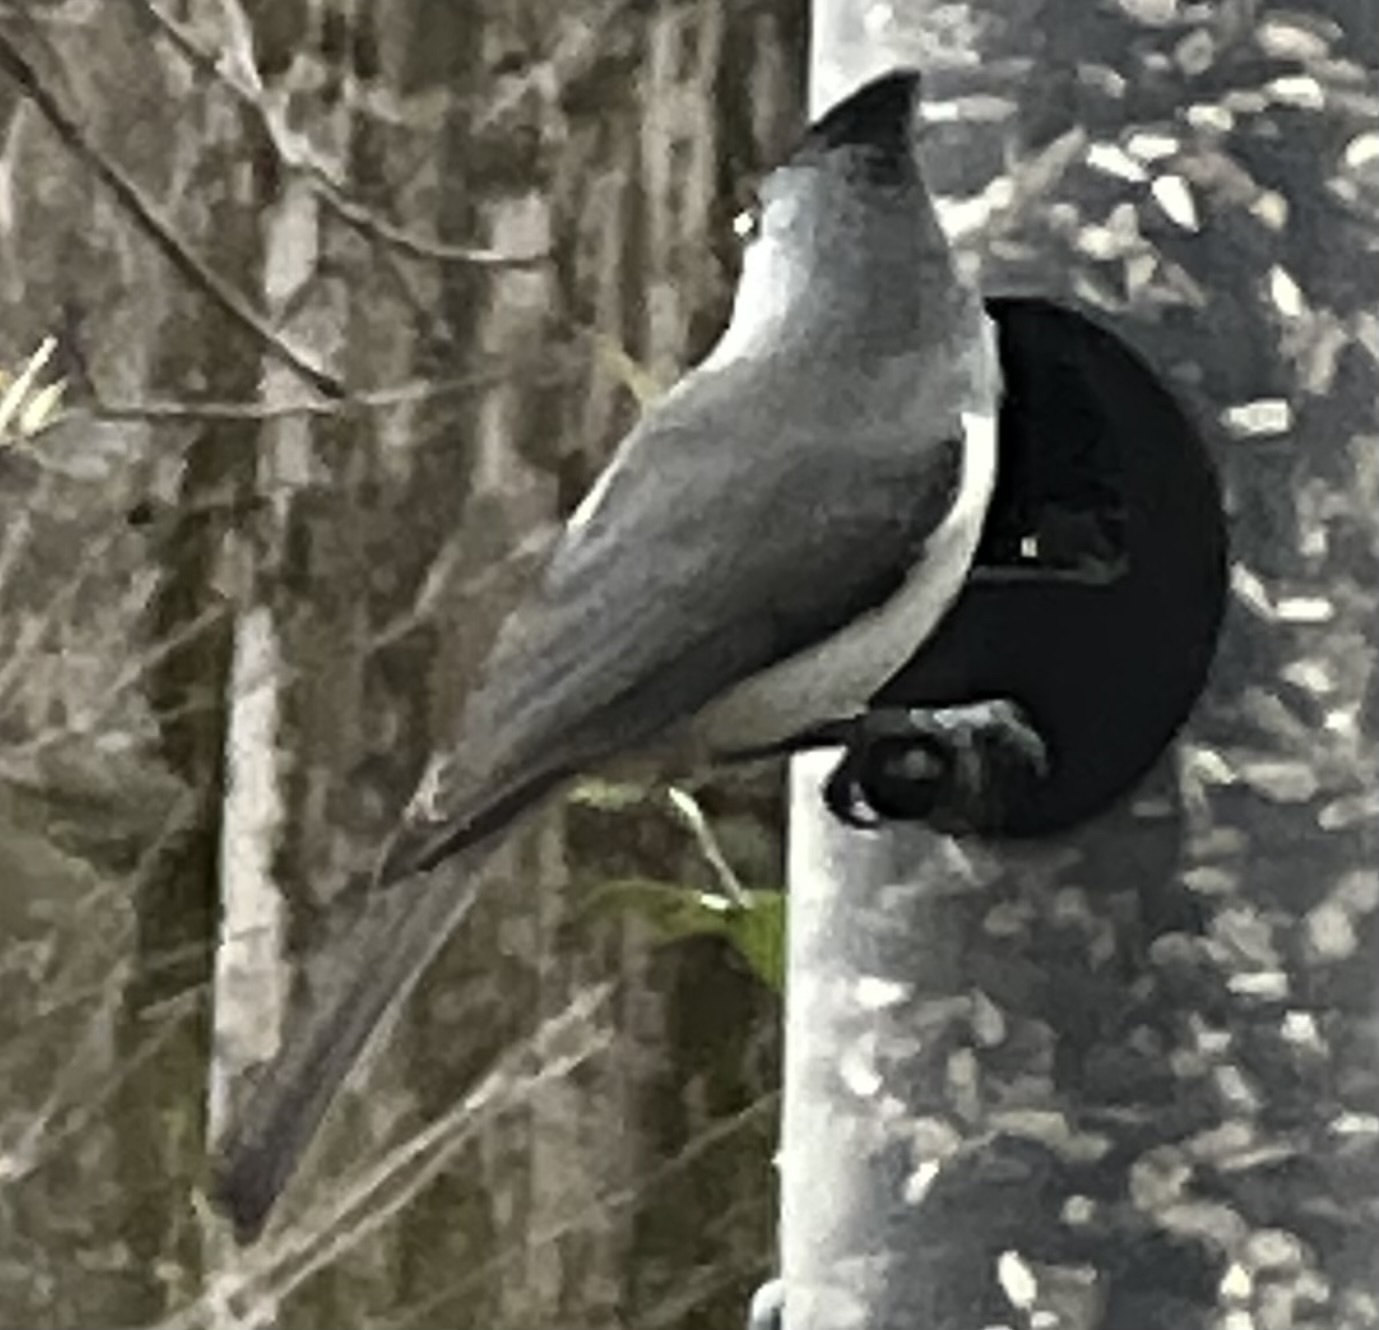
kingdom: Animalia
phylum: Chordata
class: Aves
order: Passeriformes
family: Paridae
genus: Baeolophus
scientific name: Baeolophus atricristatus
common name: Black-crested titmouse
